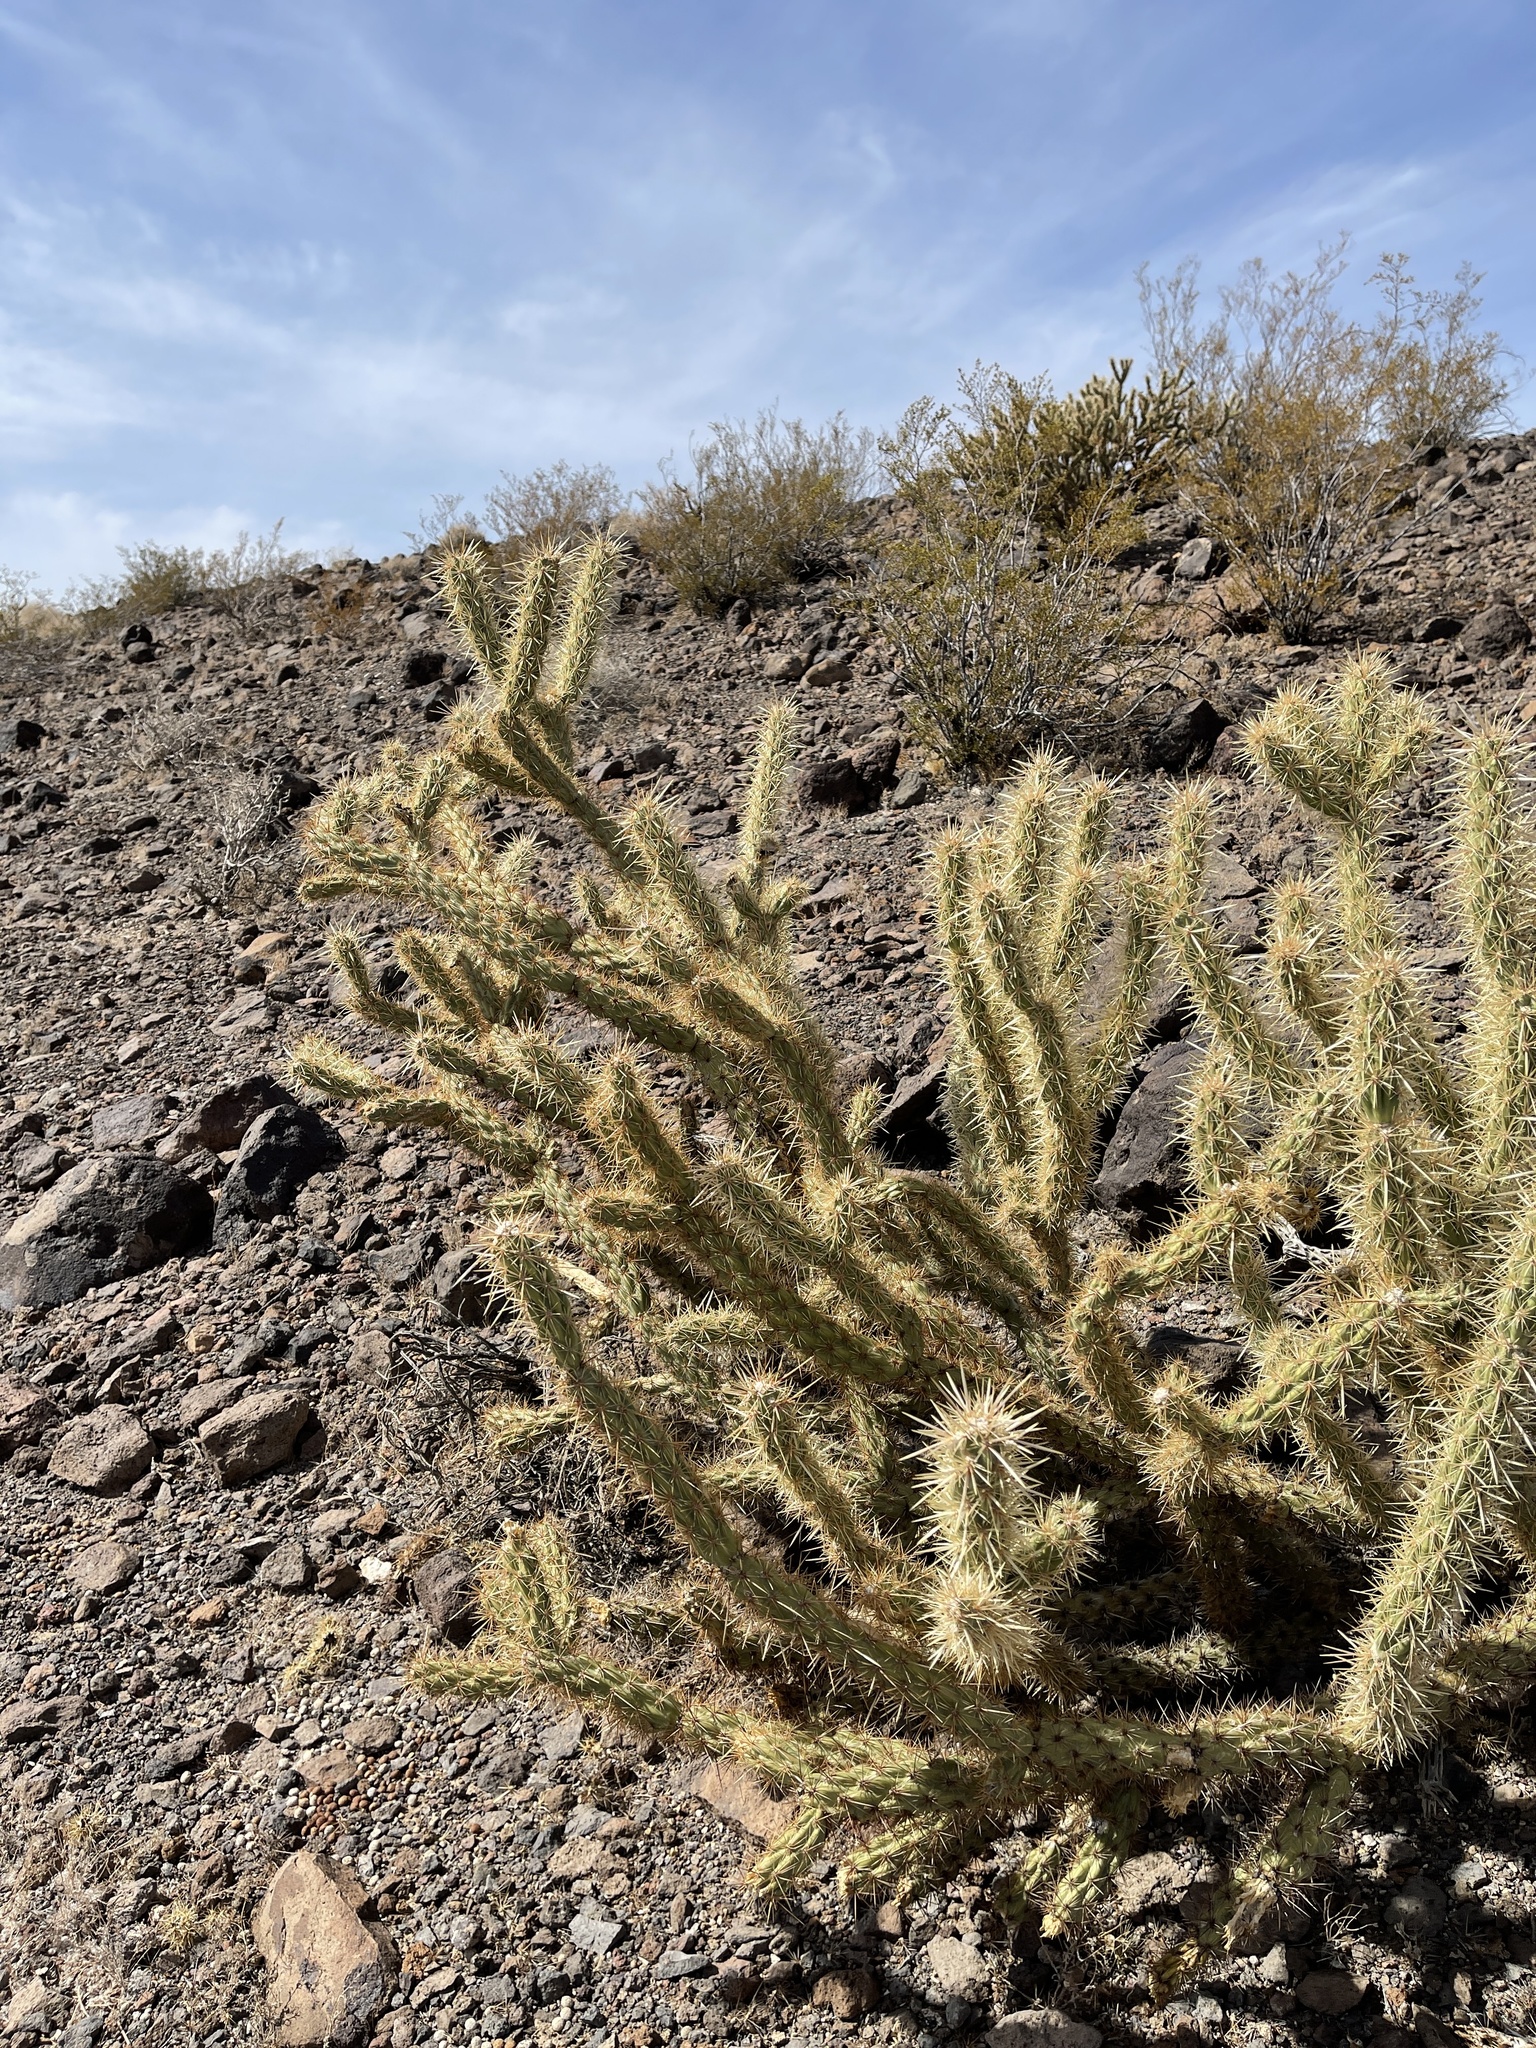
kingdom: Plantae
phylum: Tracheophyta
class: Magnoliopsida
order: Caryophyllales
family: Cactaceae
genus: Cylindropuntia
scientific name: Cylindropuntia acanthocarpa
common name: Buckhorn cholla
